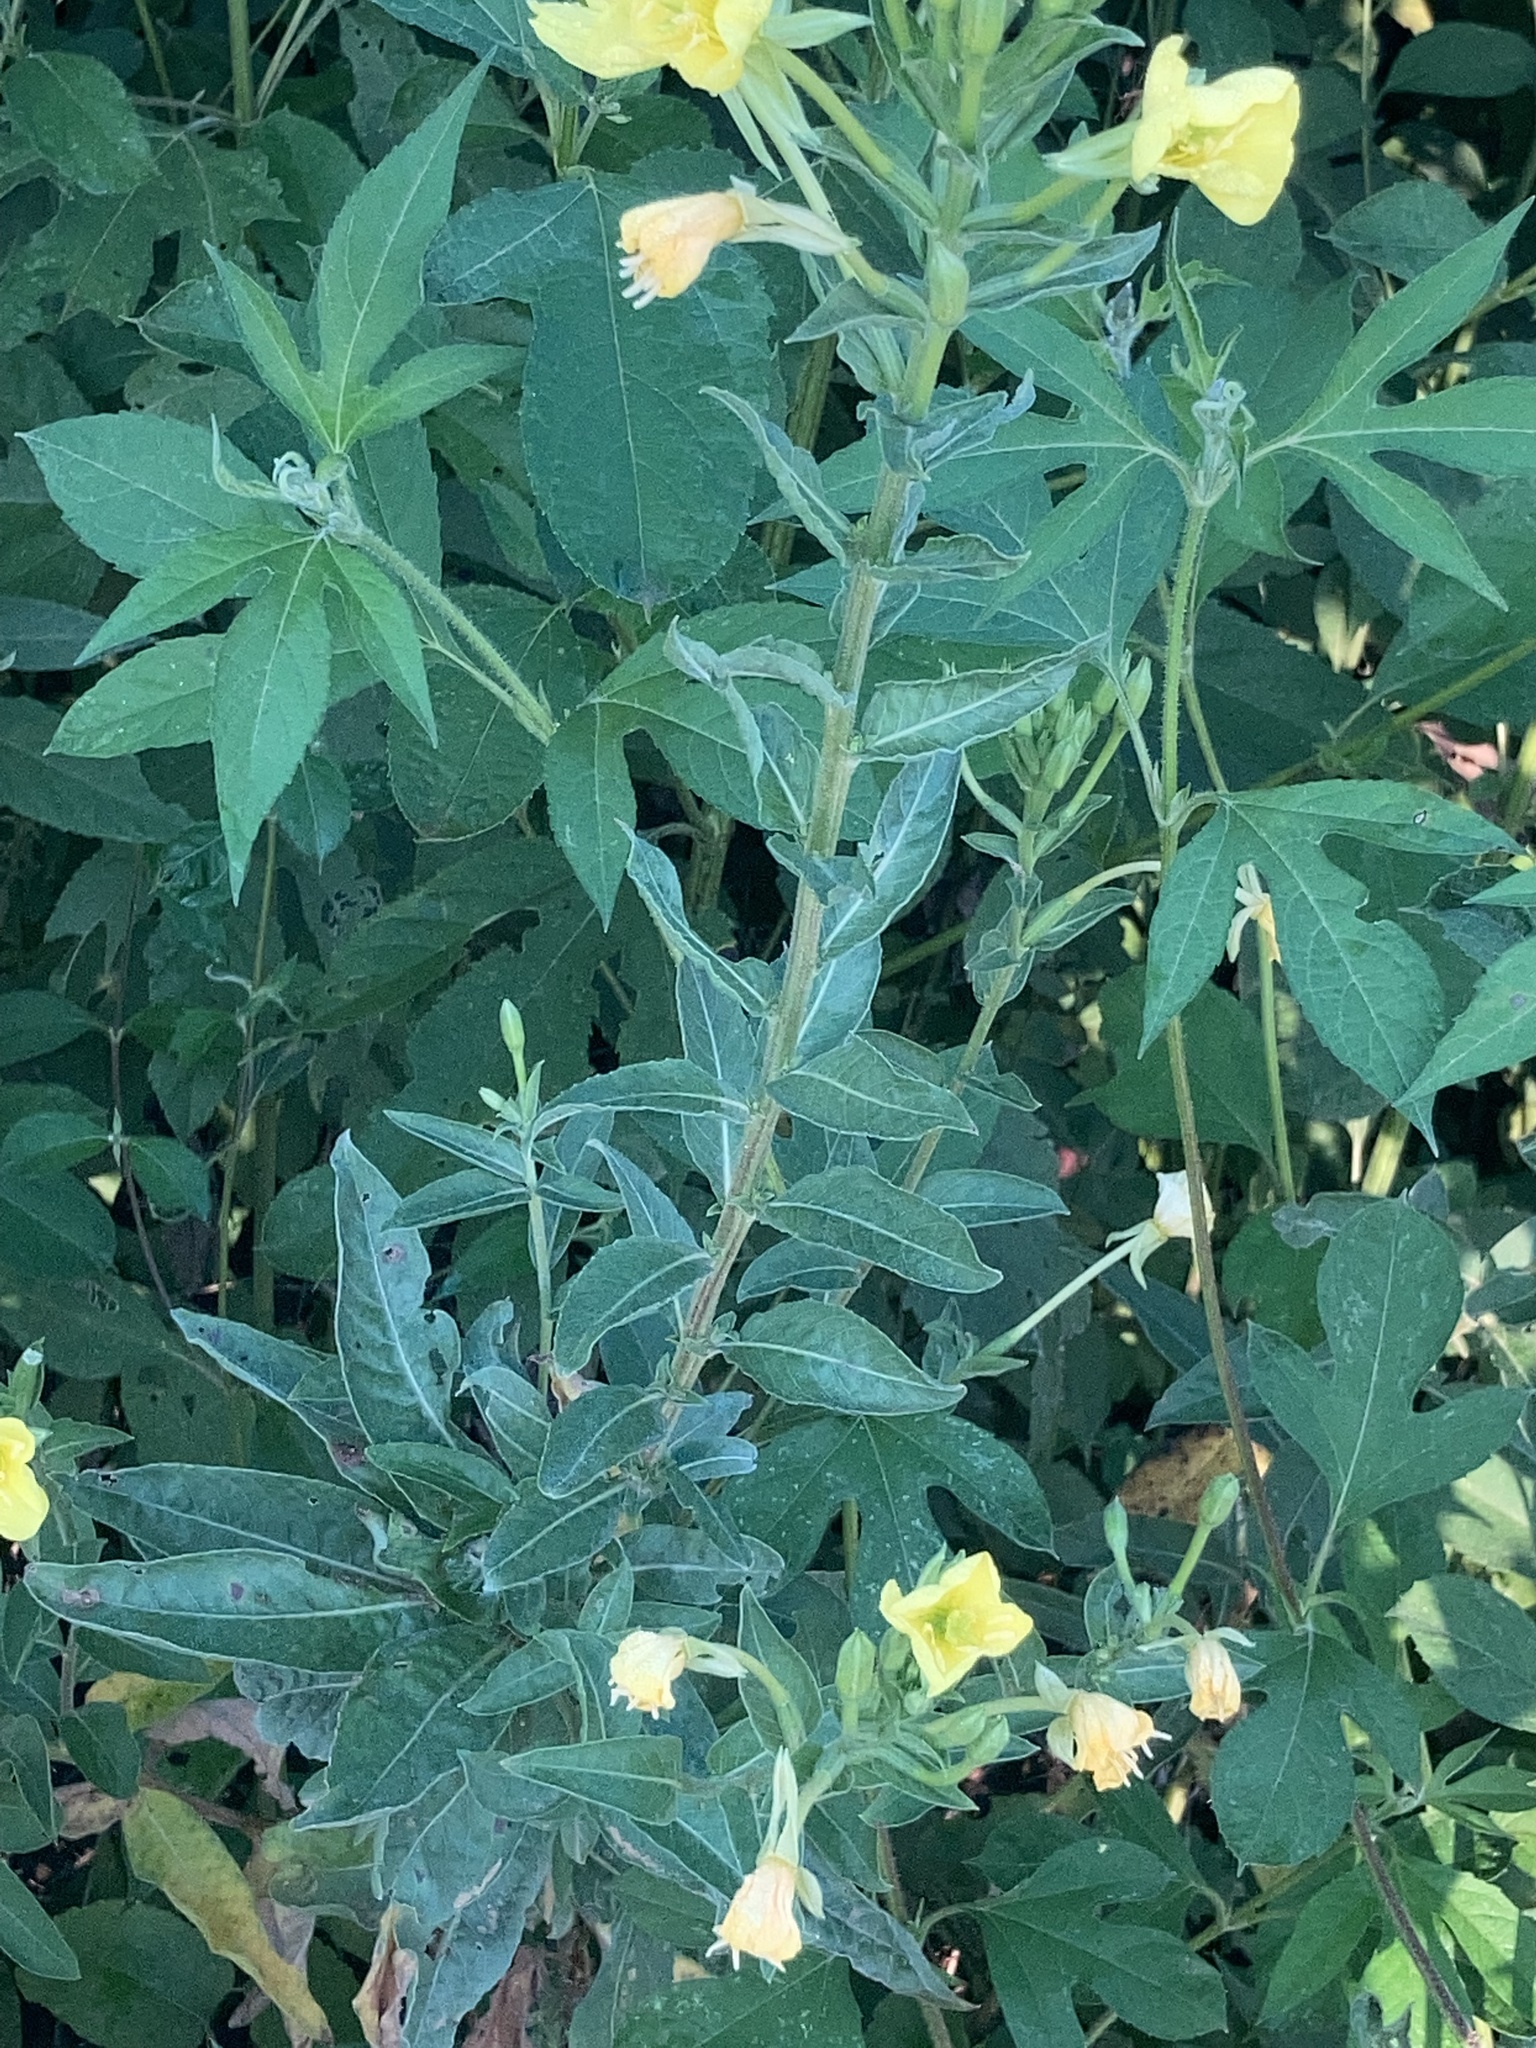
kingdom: Plantae
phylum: Tracheophyta
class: Magnoliopsida
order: Myrtales
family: Onagraceae
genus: Oenothera
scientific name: Oenothera biennis
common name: Common evening-primrose
